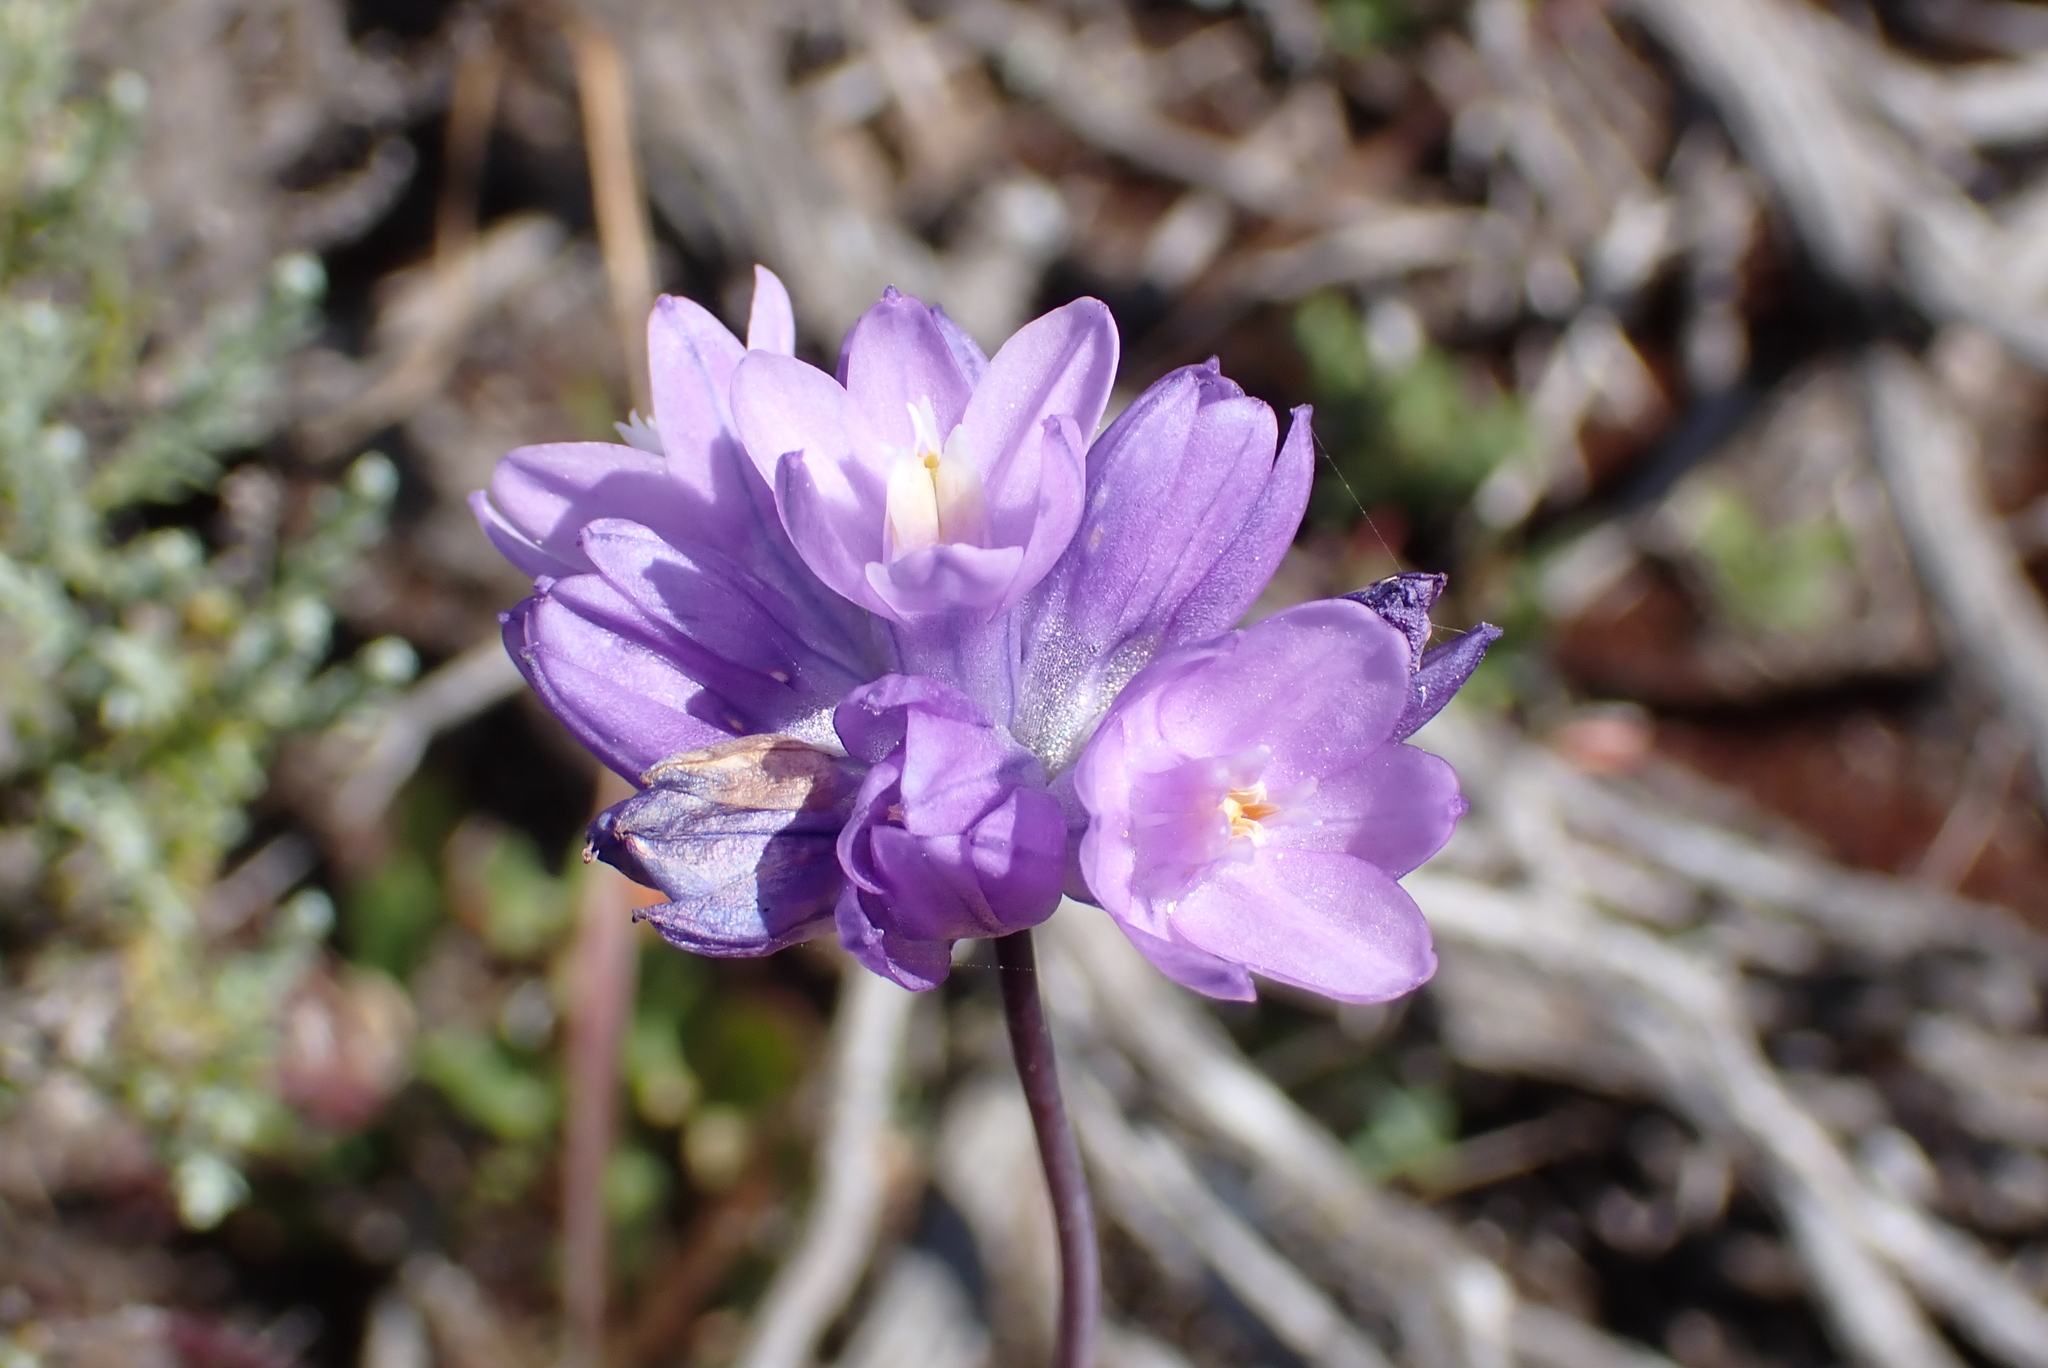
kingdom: Plantae
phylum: Tracheophyta
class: Liliopsida
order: Asparagales
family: Asparagaceae
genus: Dipterostemon
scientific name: Dipterostemon capitatus
